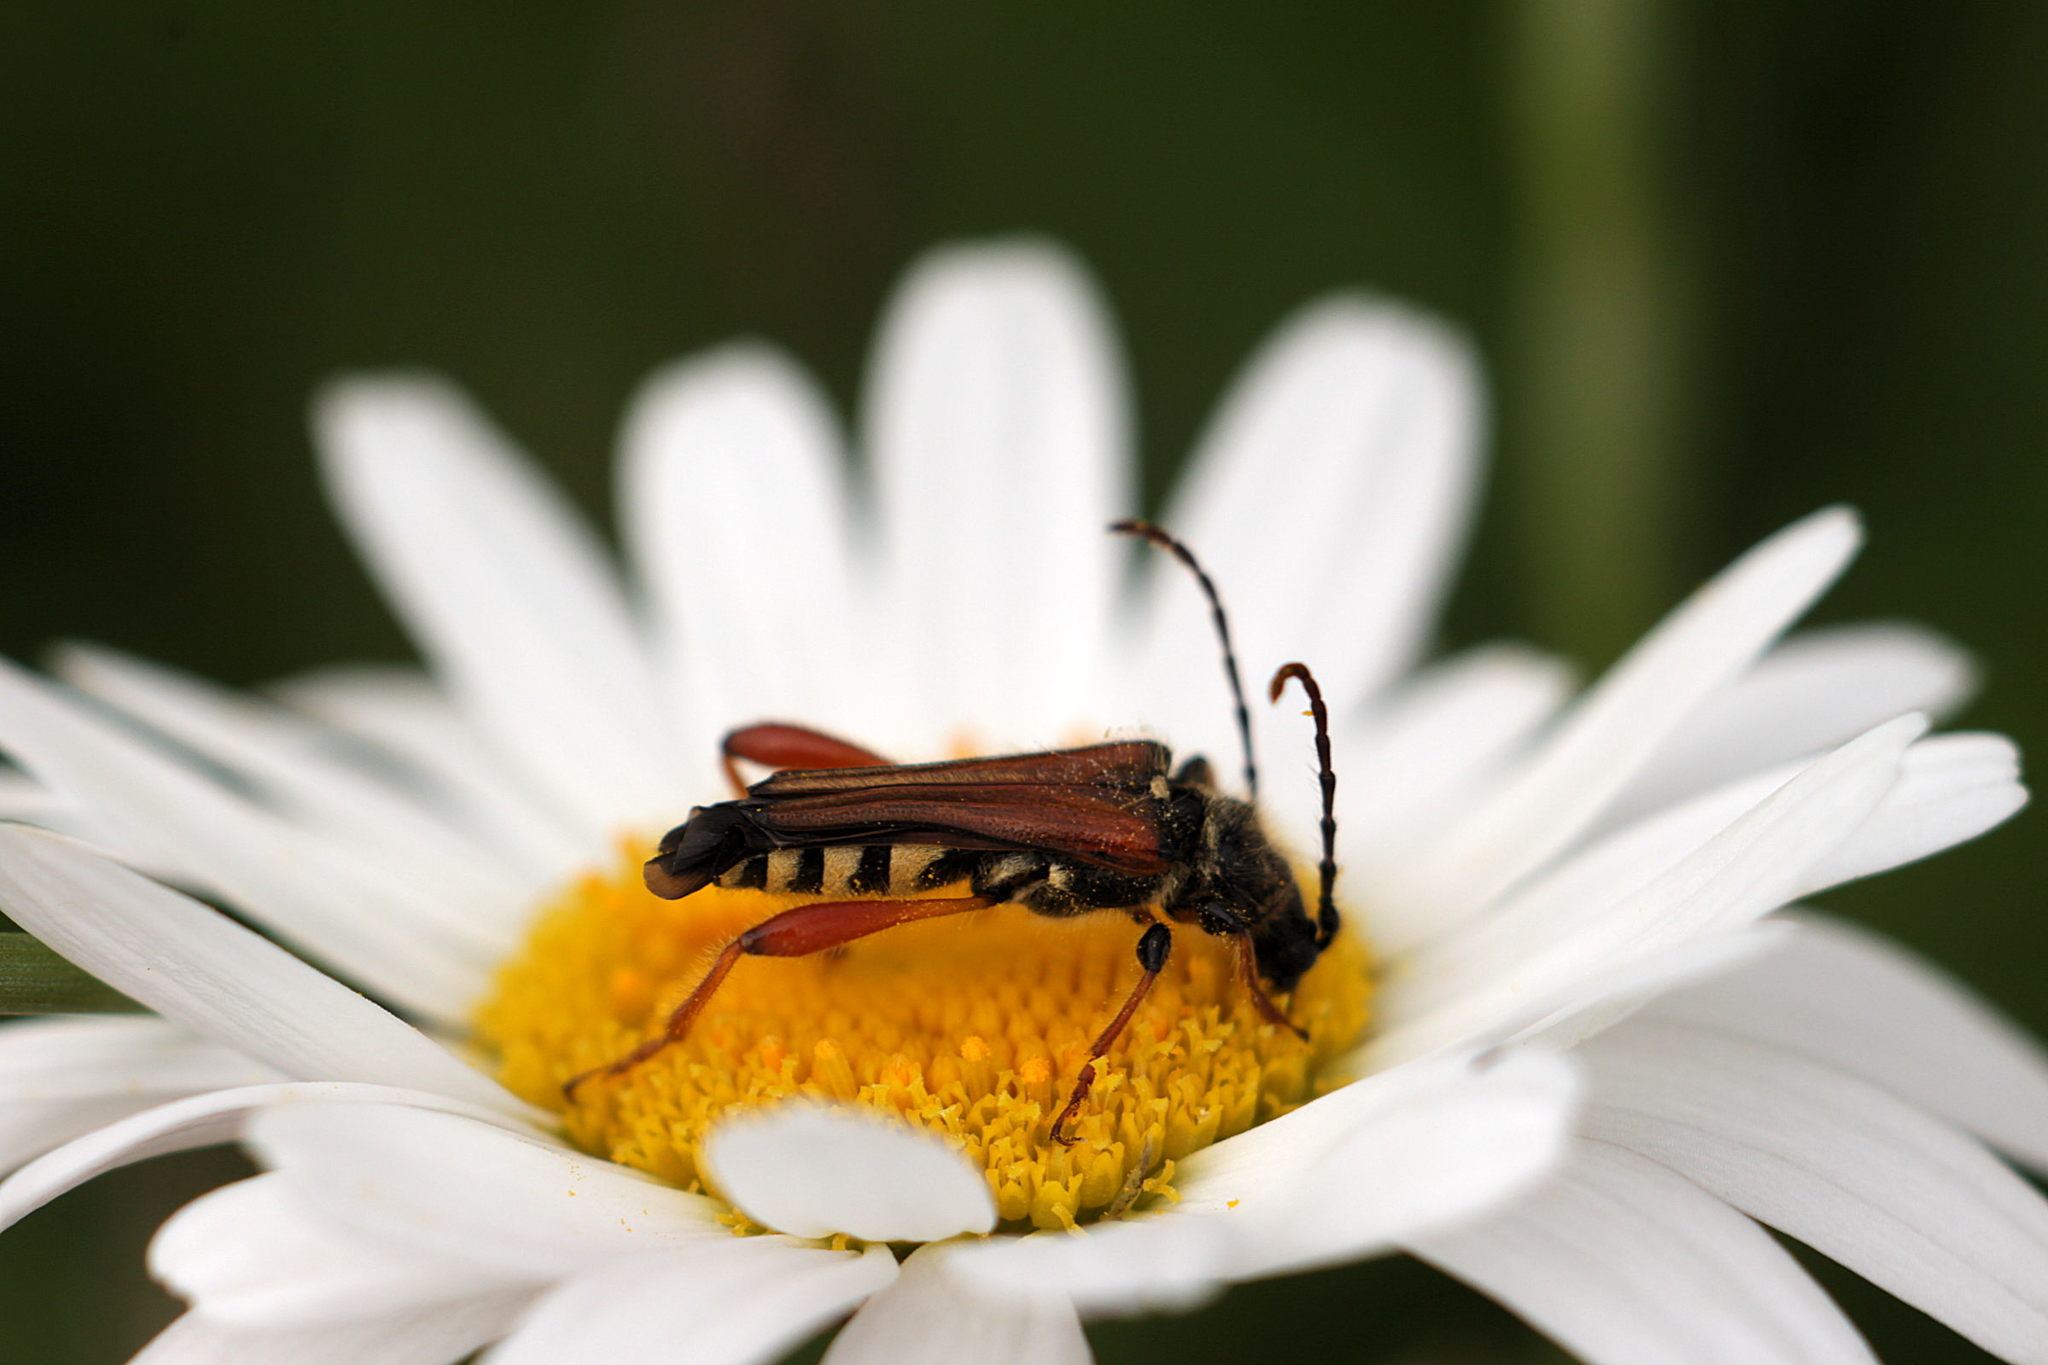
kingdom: Animalia
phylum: Arthropoda
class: Insecta
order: Coleoptera
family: Cerambycidae
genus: Stenopterus
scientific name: Stenopterus rufus
